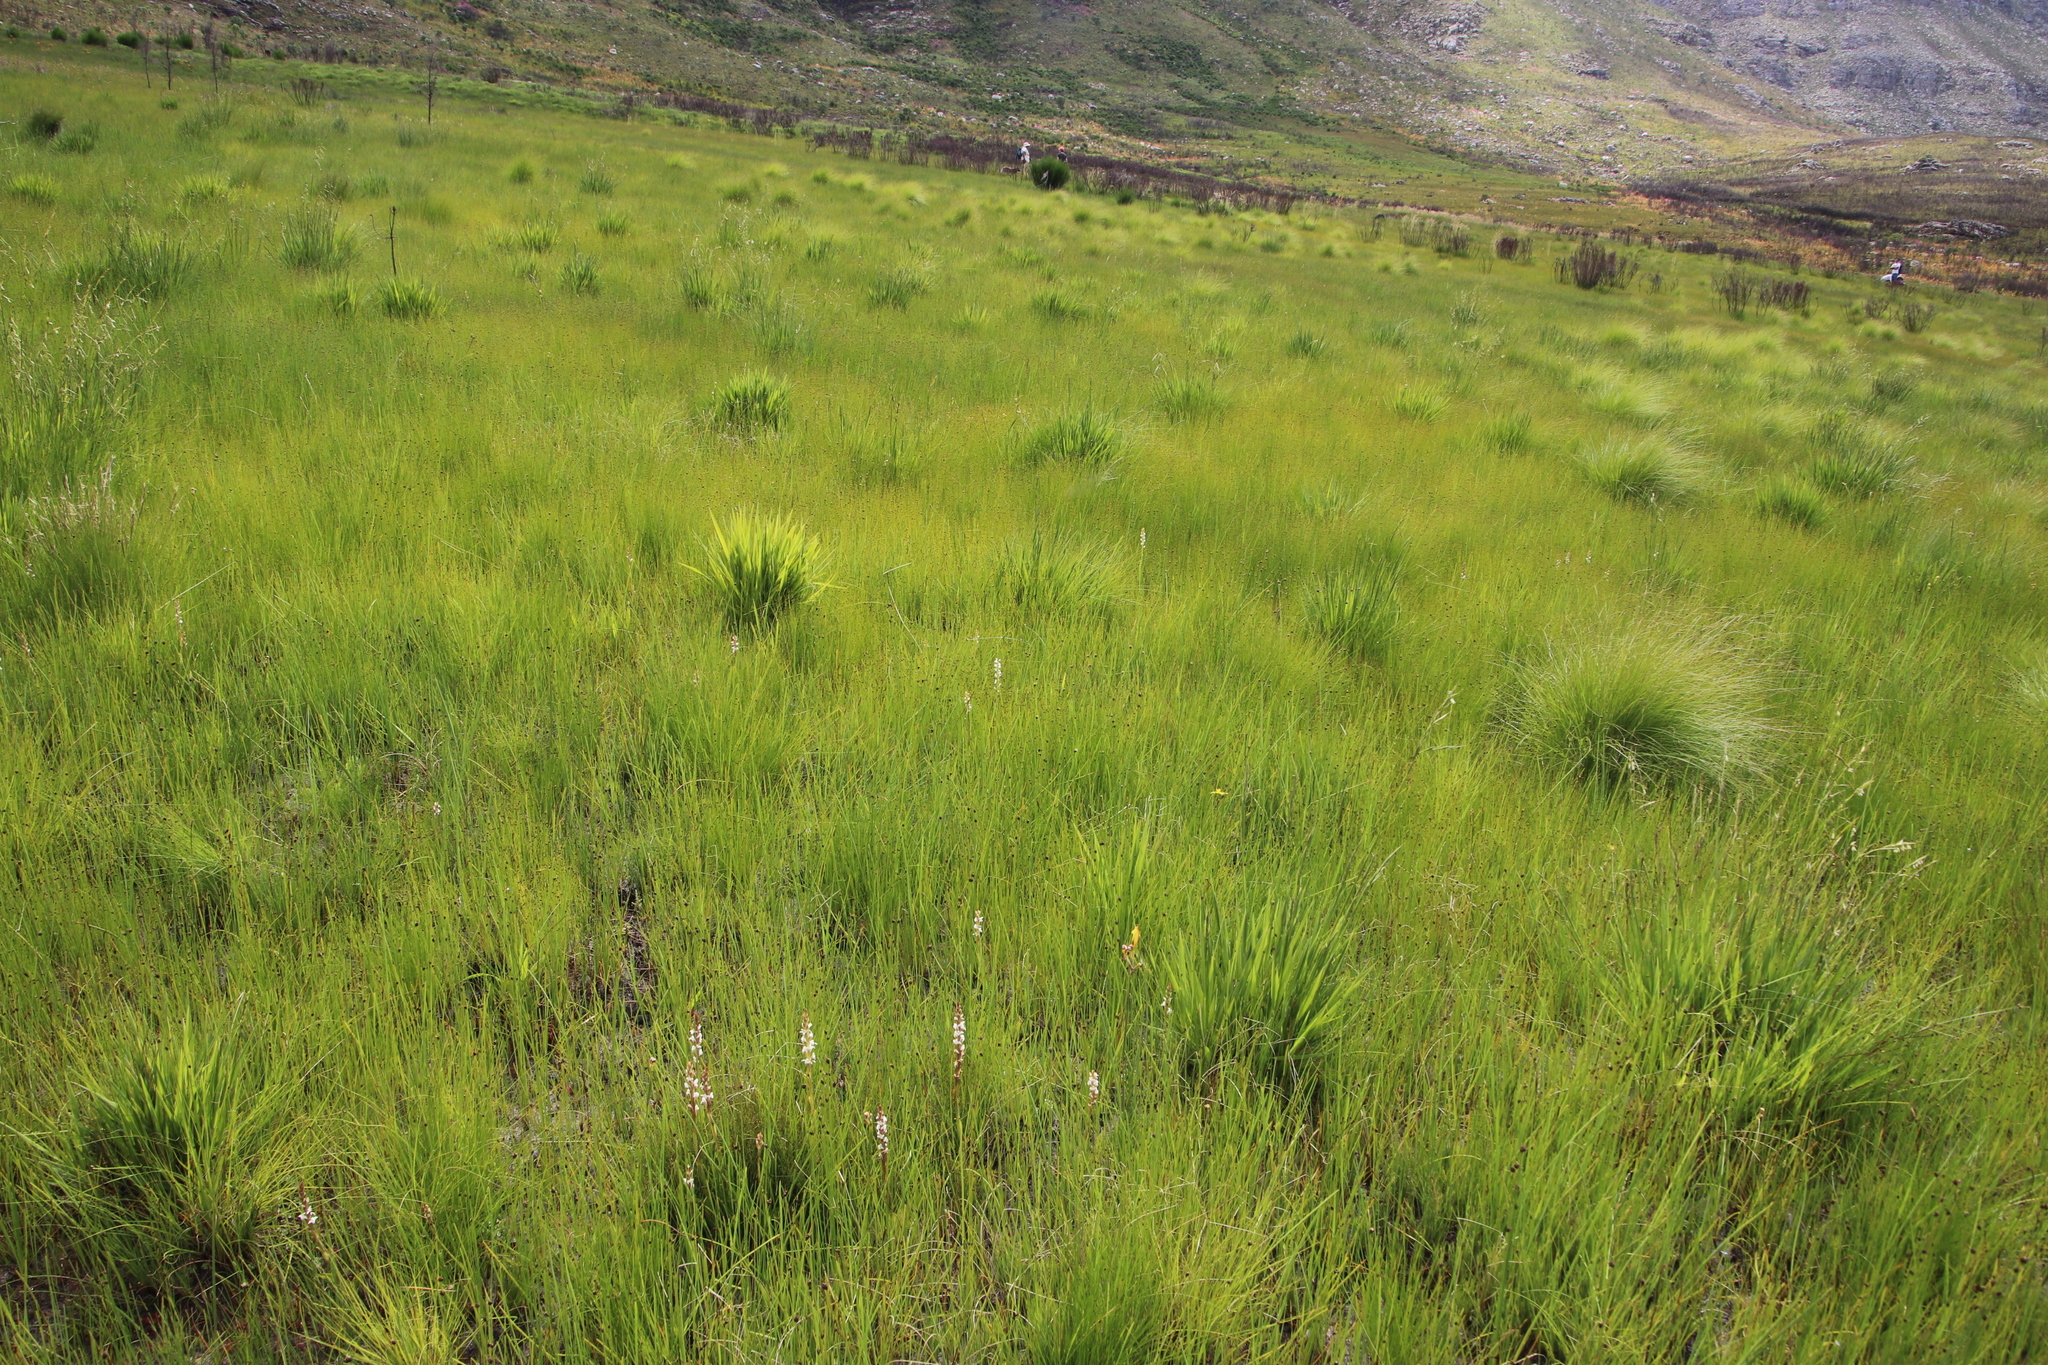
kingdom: Plantae
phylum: Tracheophyta
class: Liliopsida
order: Asparagales
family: Orchidaceae
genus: Satyrium
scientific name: Satyrium stenopetalum
